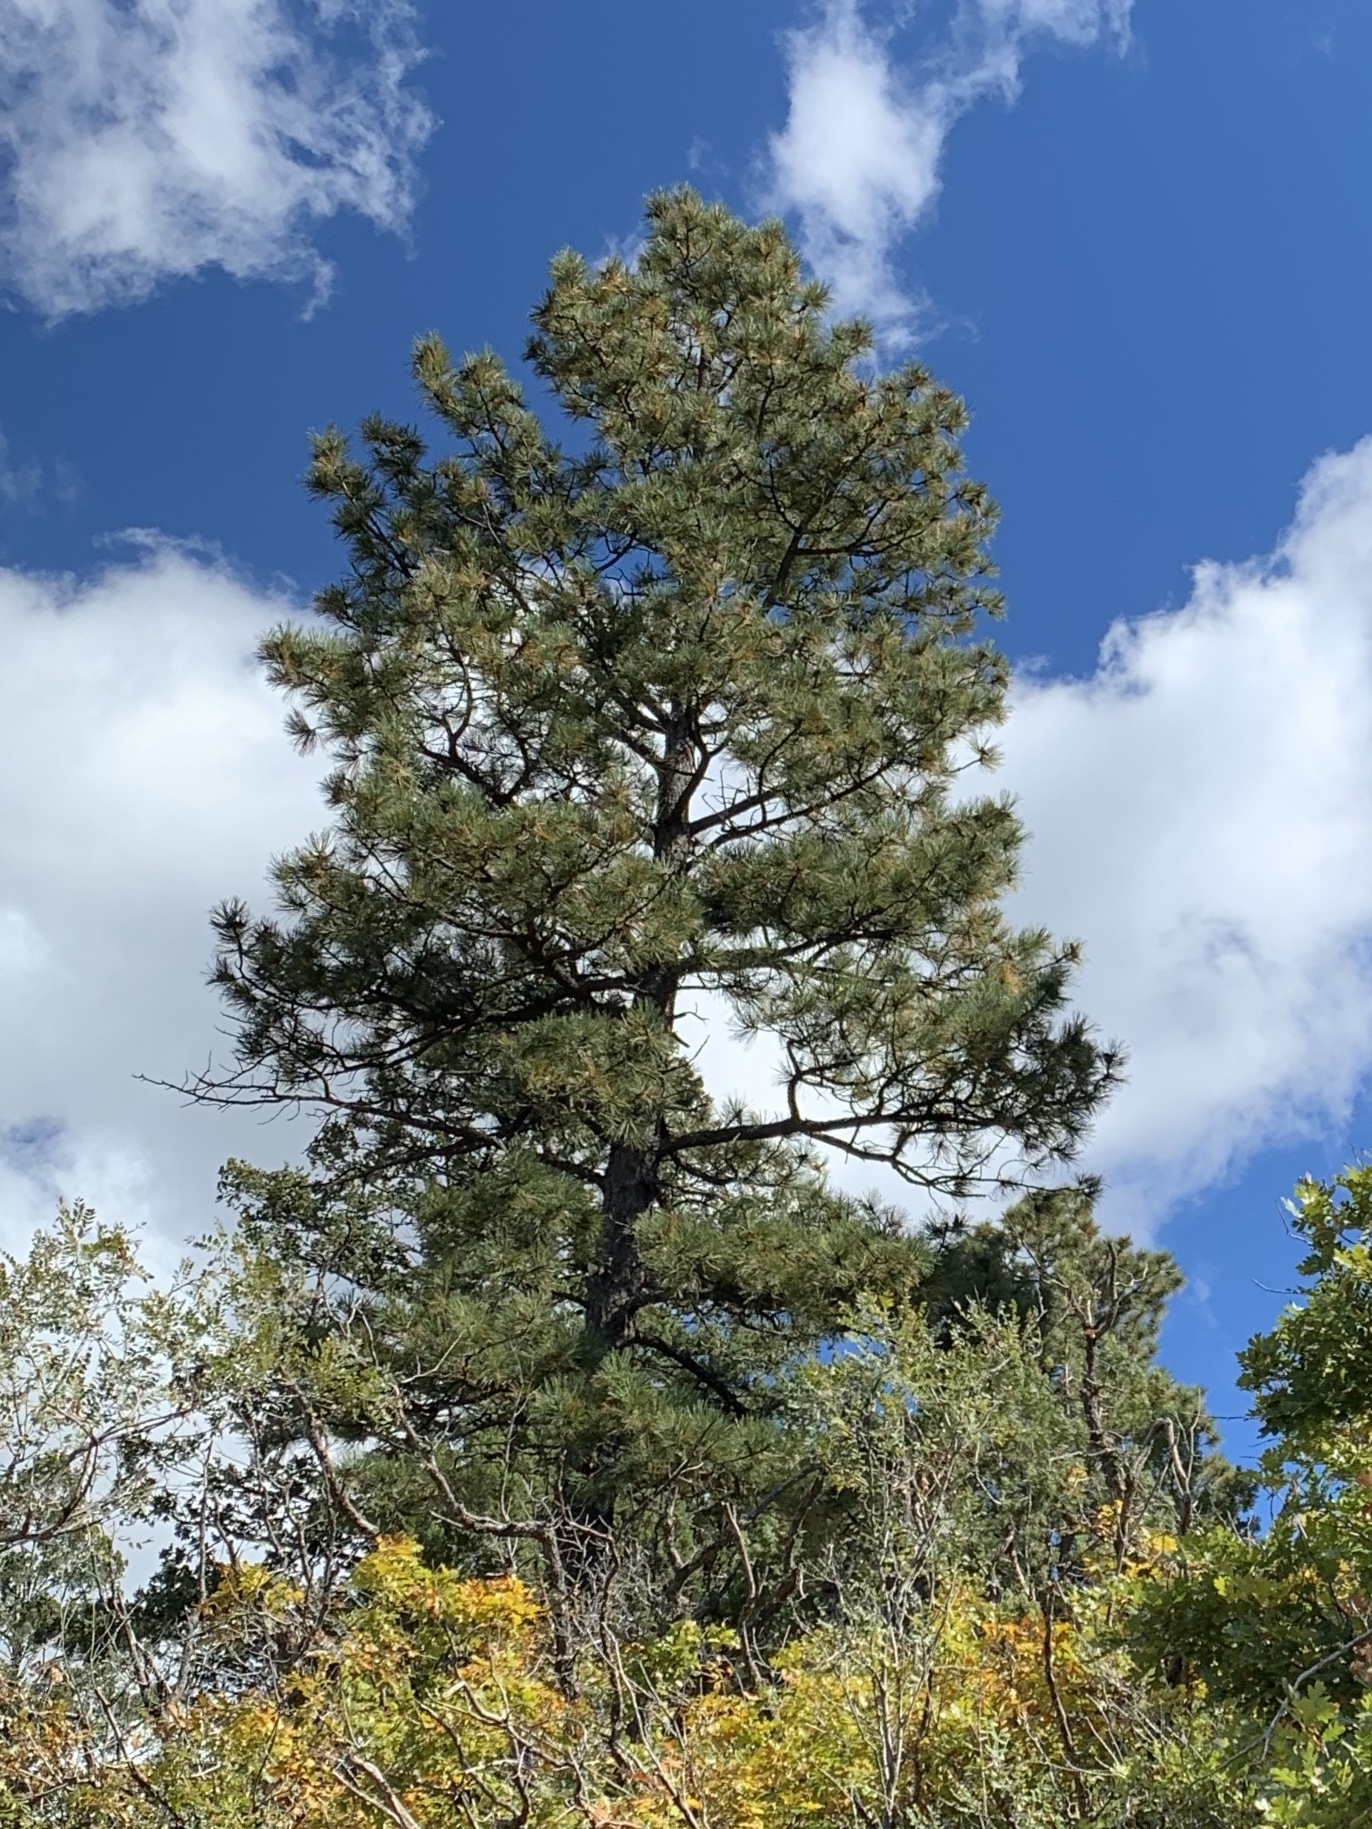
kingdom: Plantae
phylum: Tracheophyta
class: Pinopsida
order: Pinales
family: Pinaceae
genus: Pinus
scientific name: Pinus ponderosa
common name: Western yellow-pine
